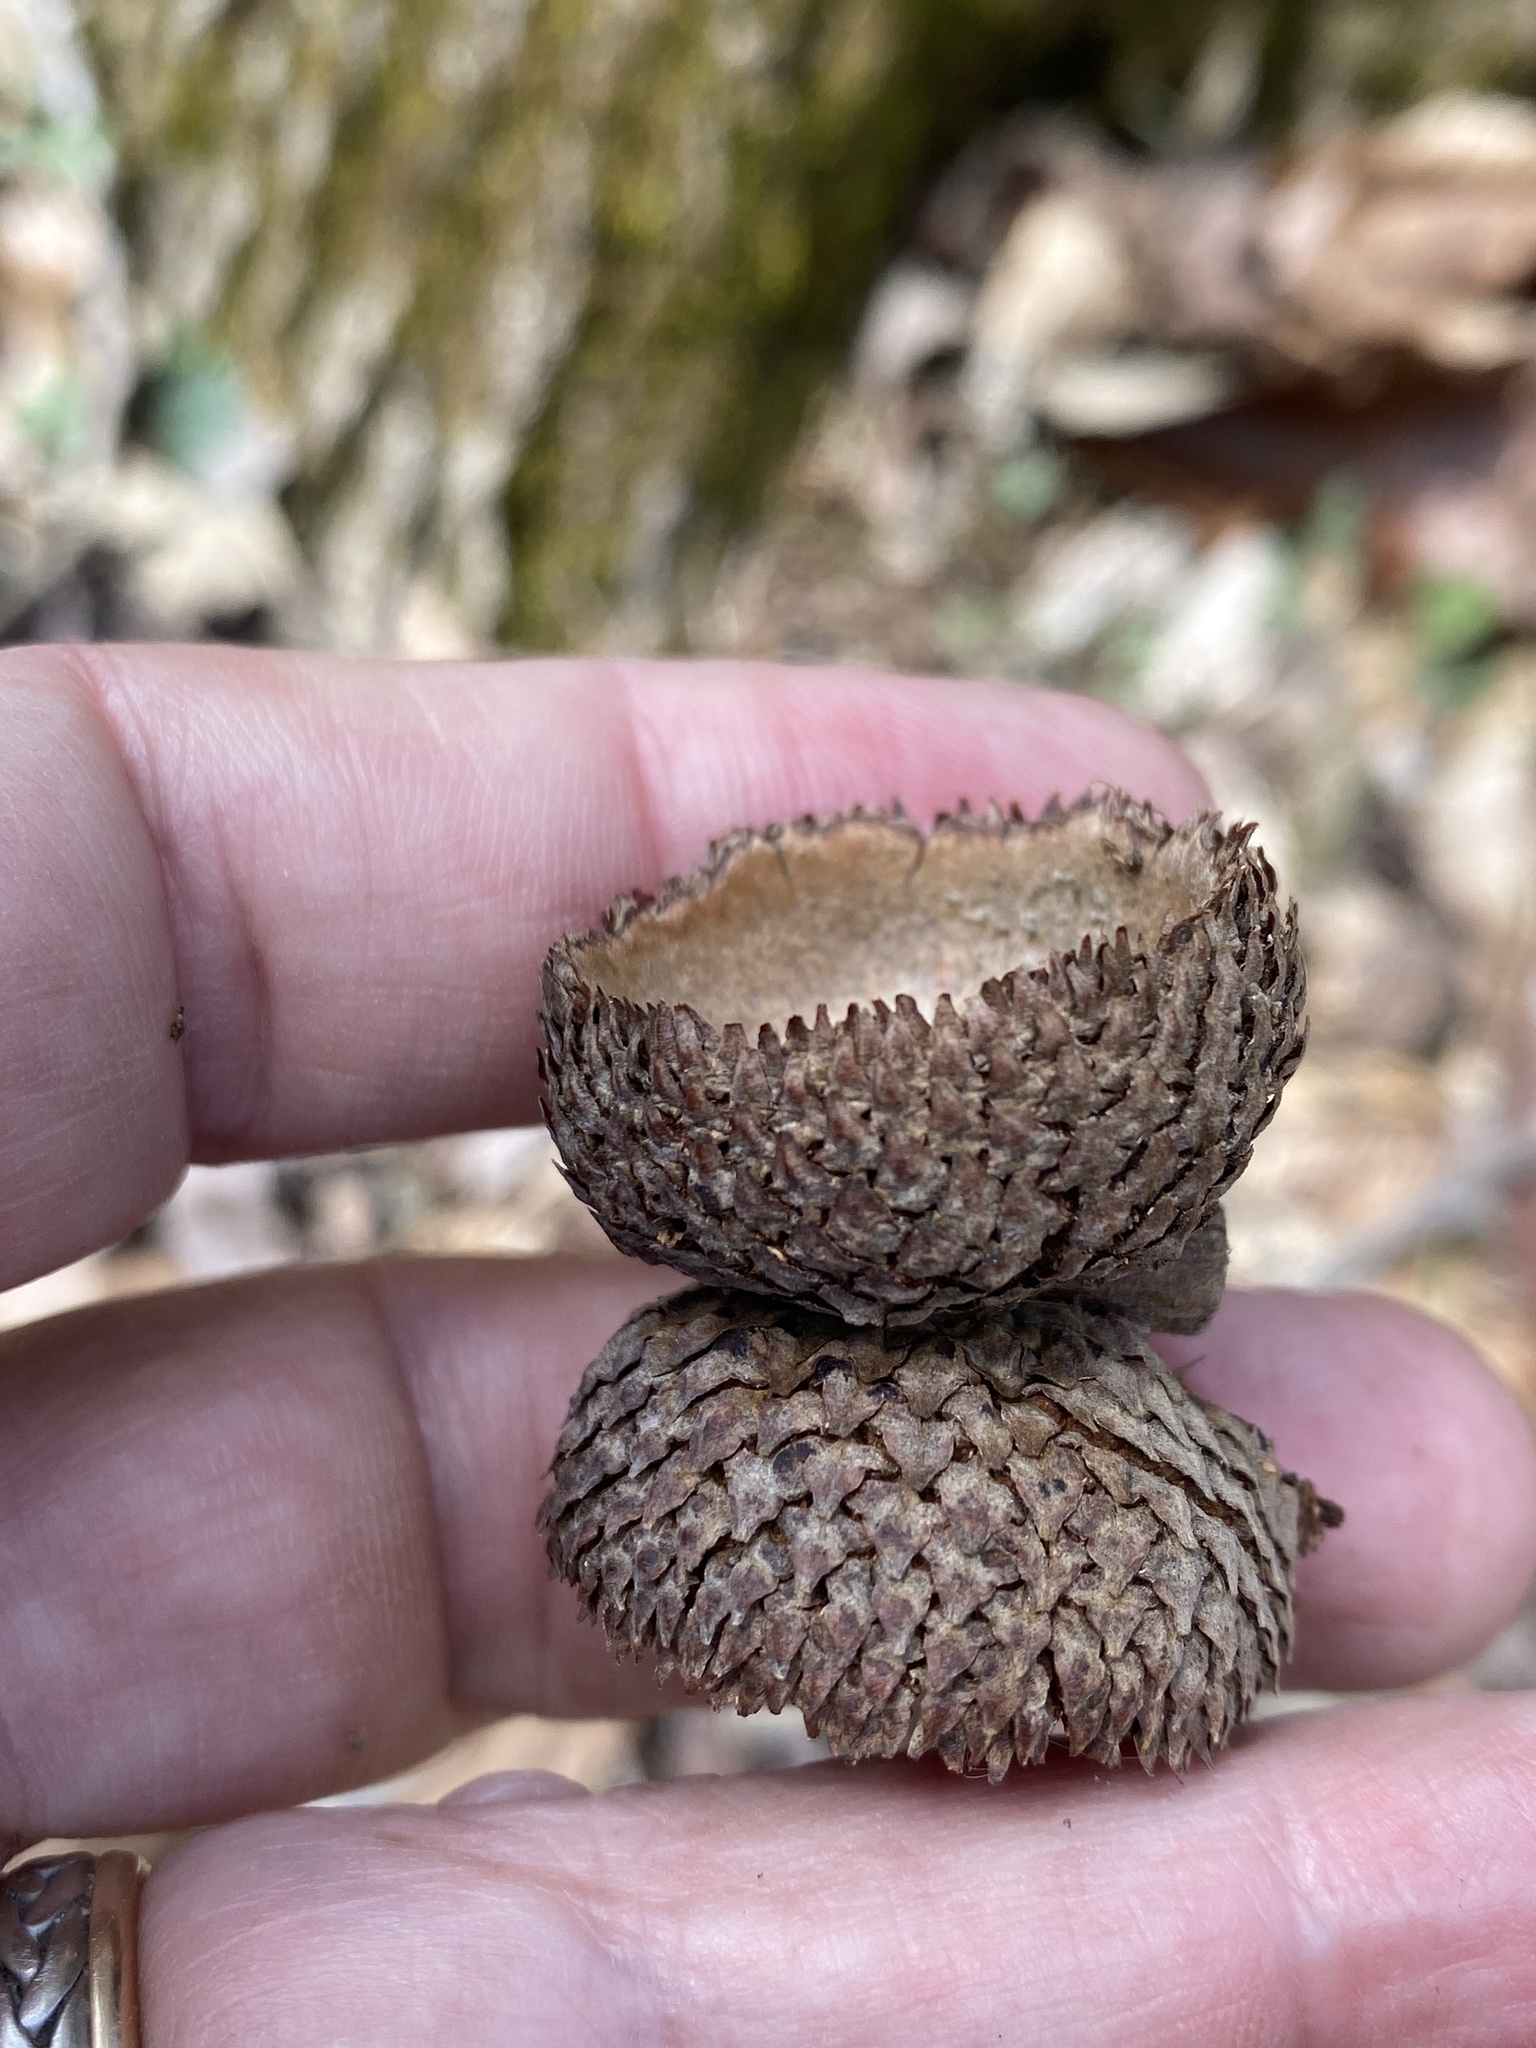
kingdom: Plantae
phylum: Tracheophyta
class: Magnoliopsida
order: Fagales
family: Fagaceae
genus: Quercus
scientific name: Quercus michauxii
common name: Swamp chestnut oak
